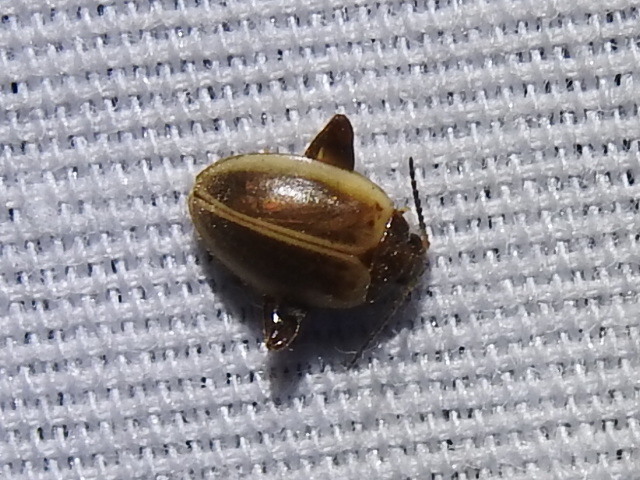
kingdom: Animalia
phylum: Arthropoda
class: Insecta
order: Coleoptera
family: Scirtidae
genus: Ora
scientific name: Ora discoidea
